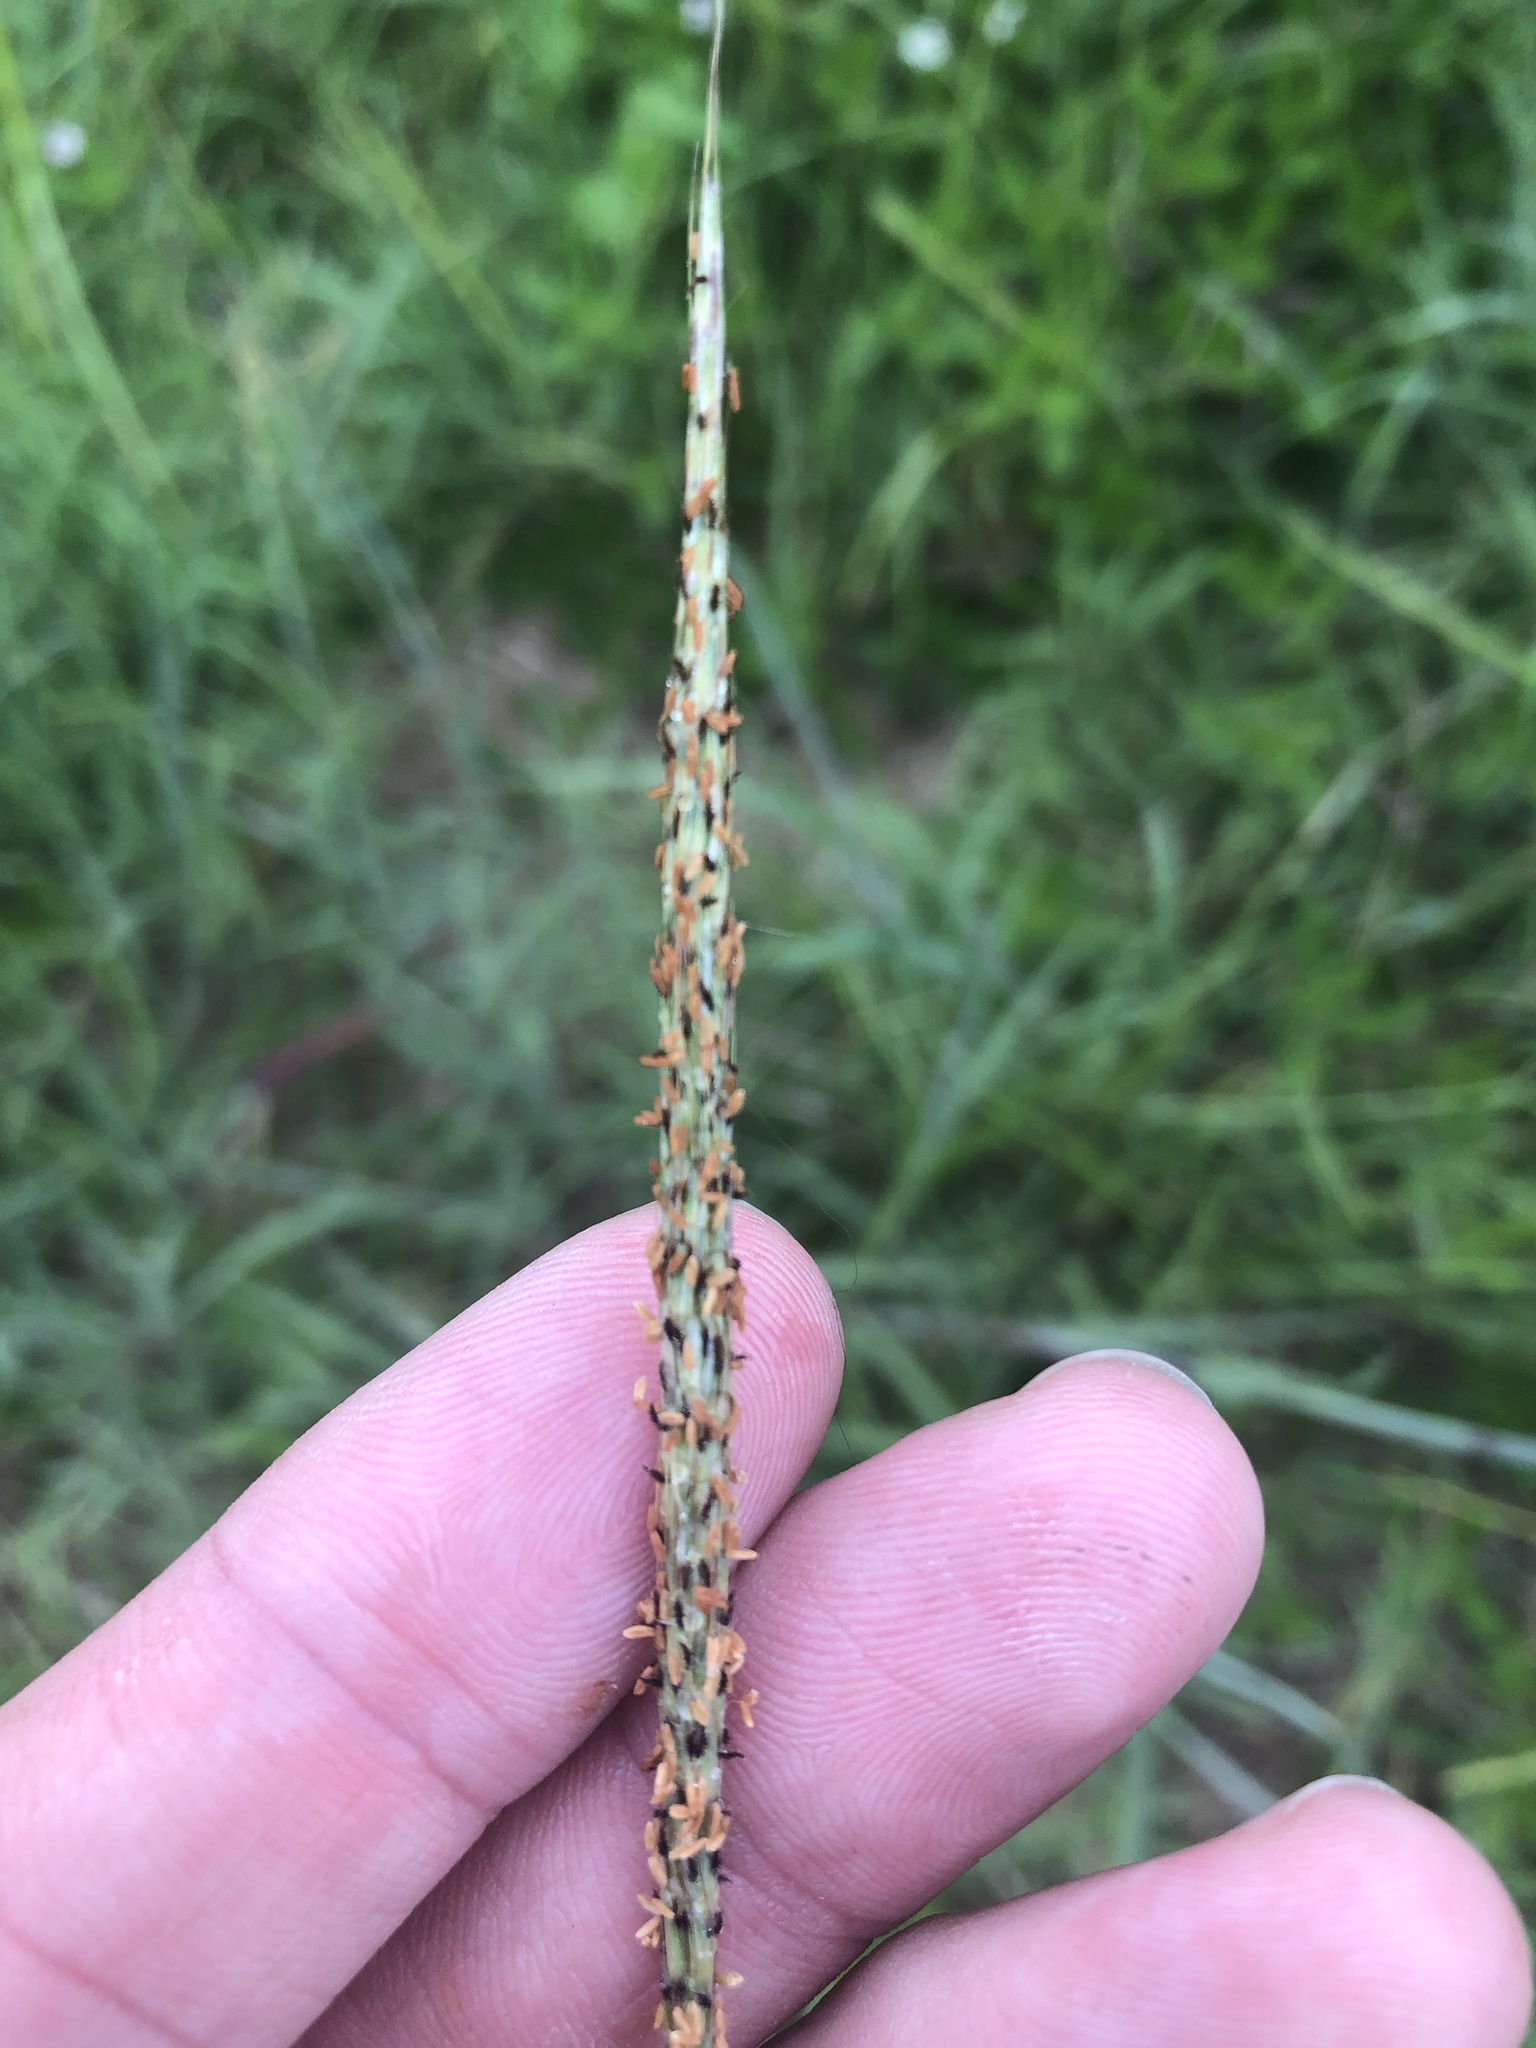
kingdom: Plantae
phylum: Tracheophyta
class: Liliopsida
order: Poales
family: Poaceae
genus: Bothriochloa
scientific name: Bothriochloa torreyana
